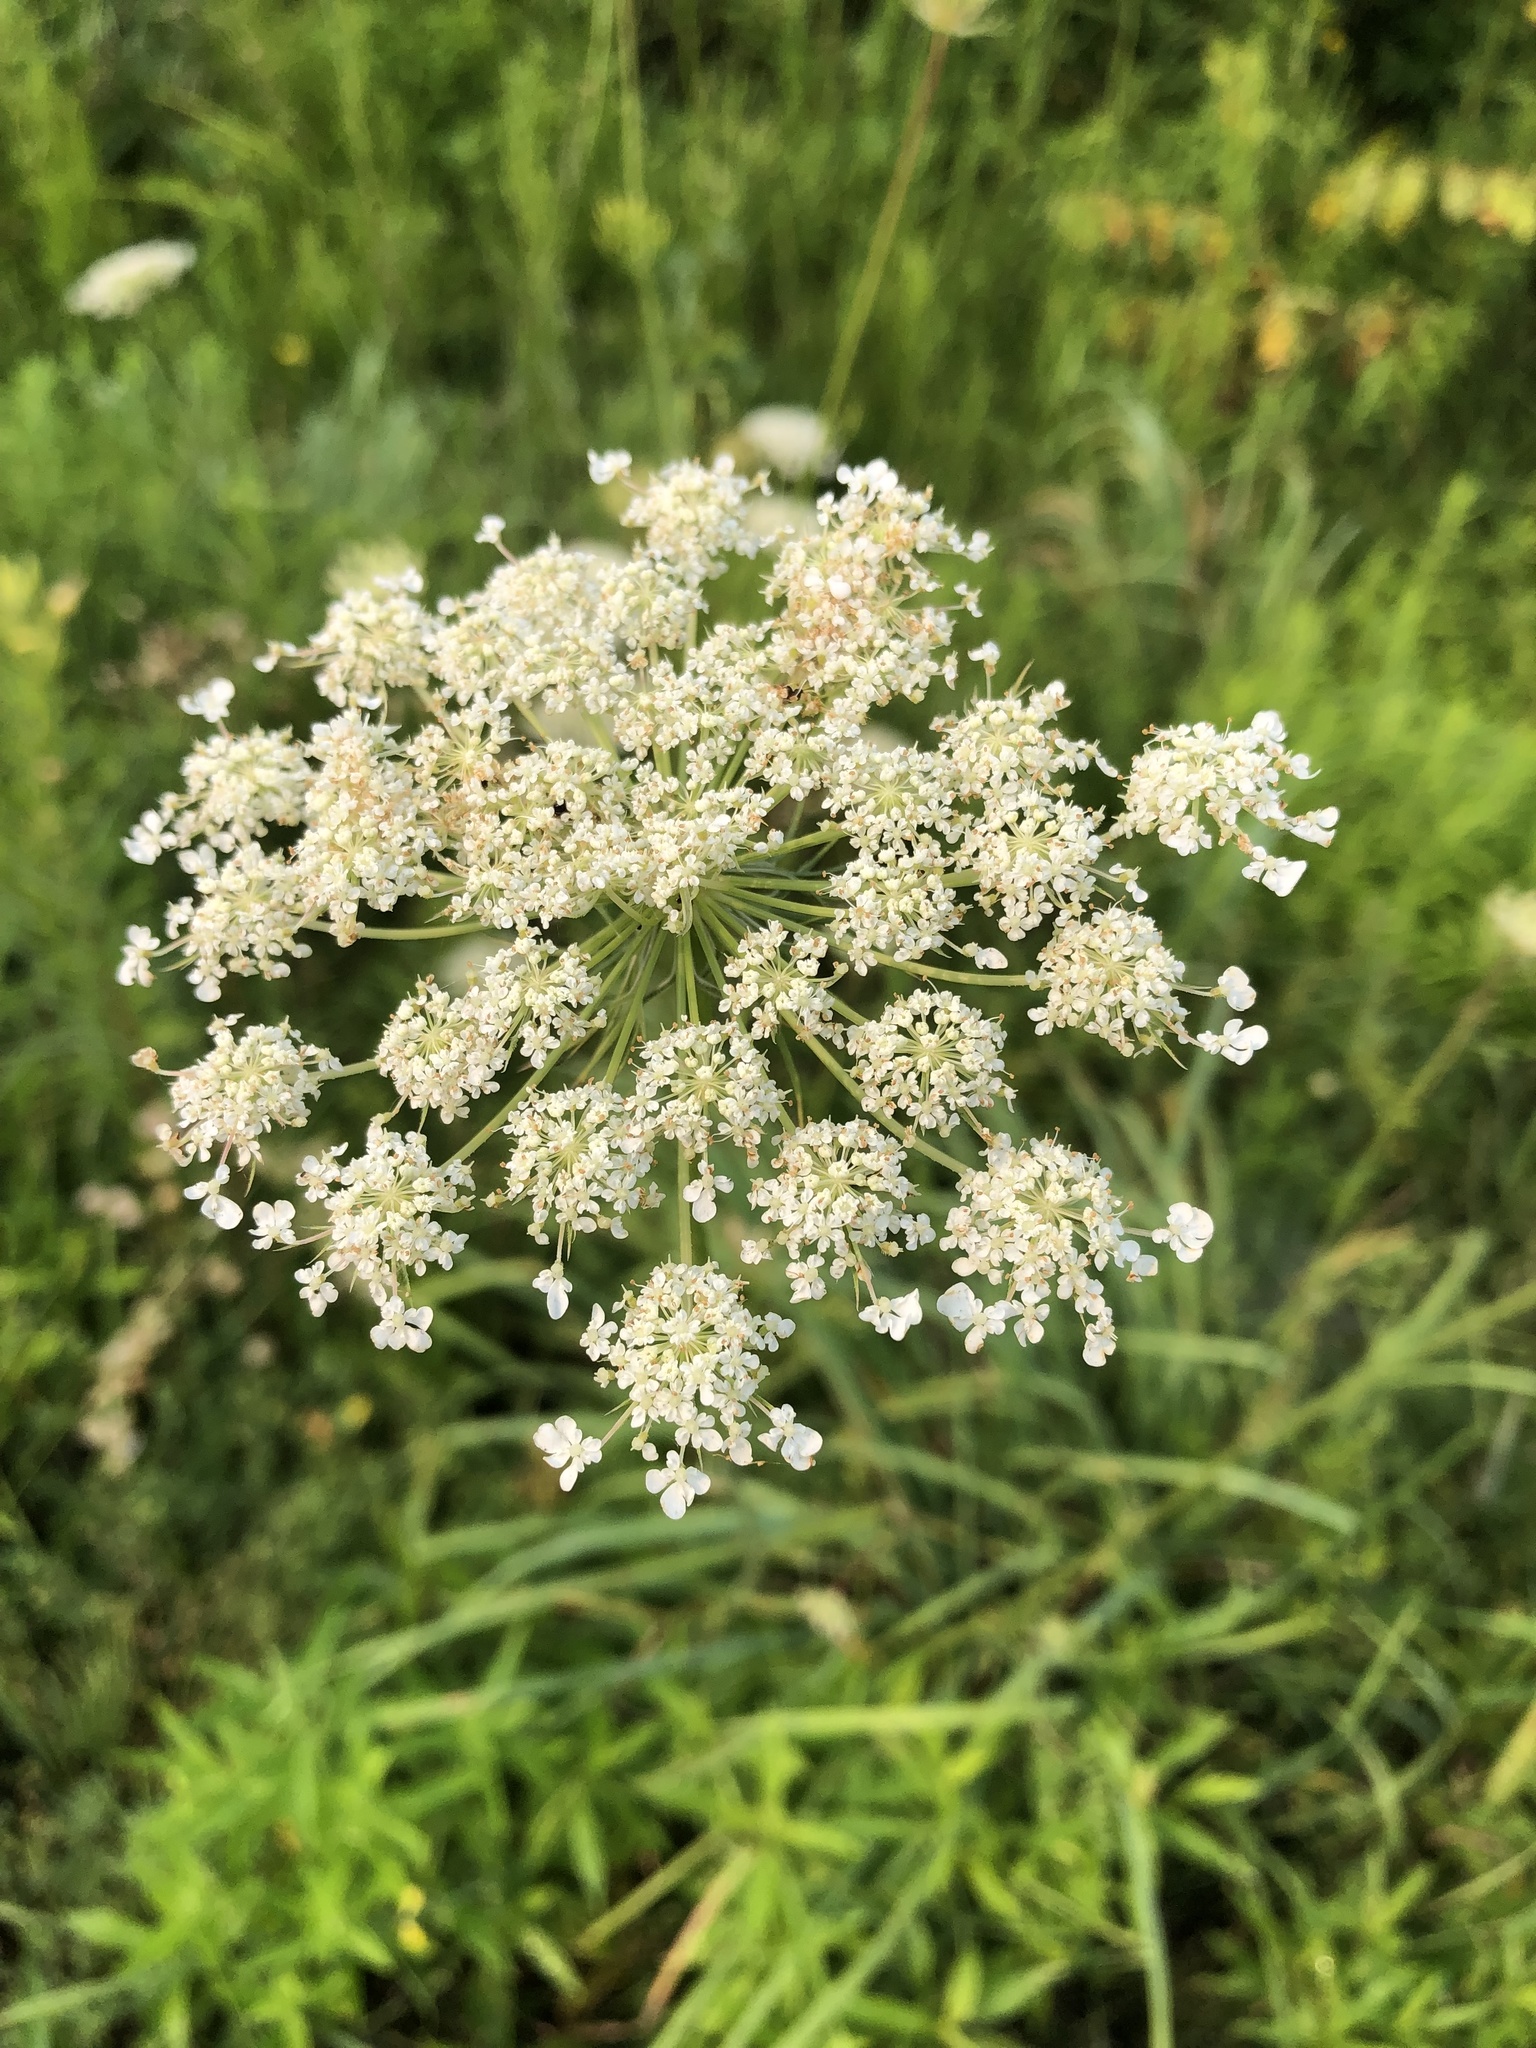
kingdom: Plantae
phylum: Tracheophyta
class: Magnoliopsida
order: Apiales
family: Apiaceae
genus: Daucus
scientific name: Daucus carota
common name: Wild carrot
